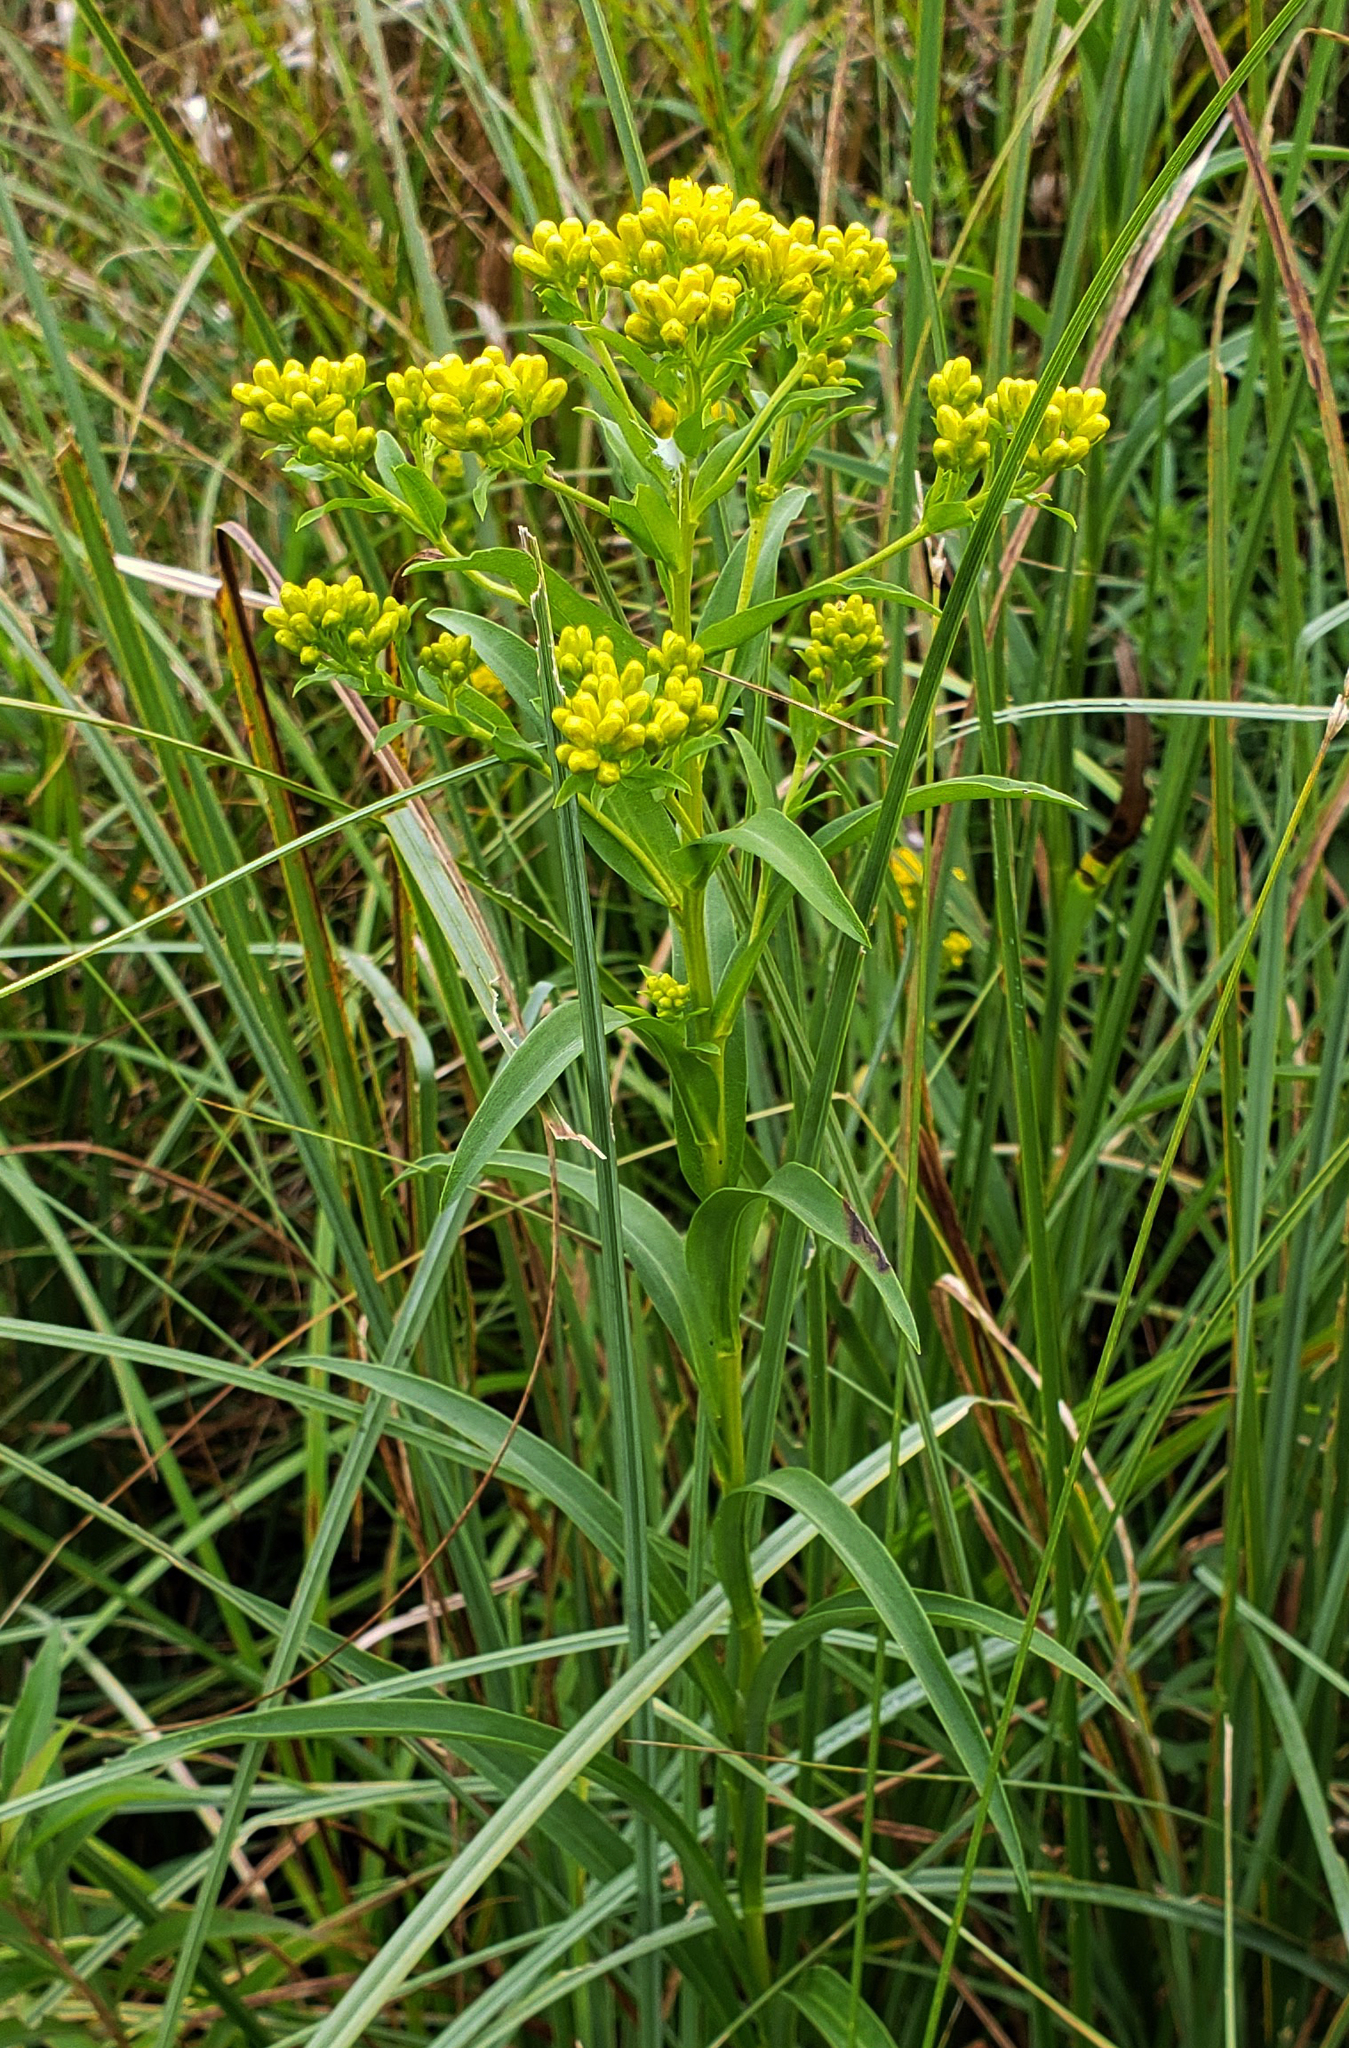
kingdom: Plantae
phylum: Tracheophyta
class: Magnoliopsida
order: Asterales
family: Asteraceae
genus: Solidago
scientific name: Solidago riddellii
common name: Riddell's goldenrod
